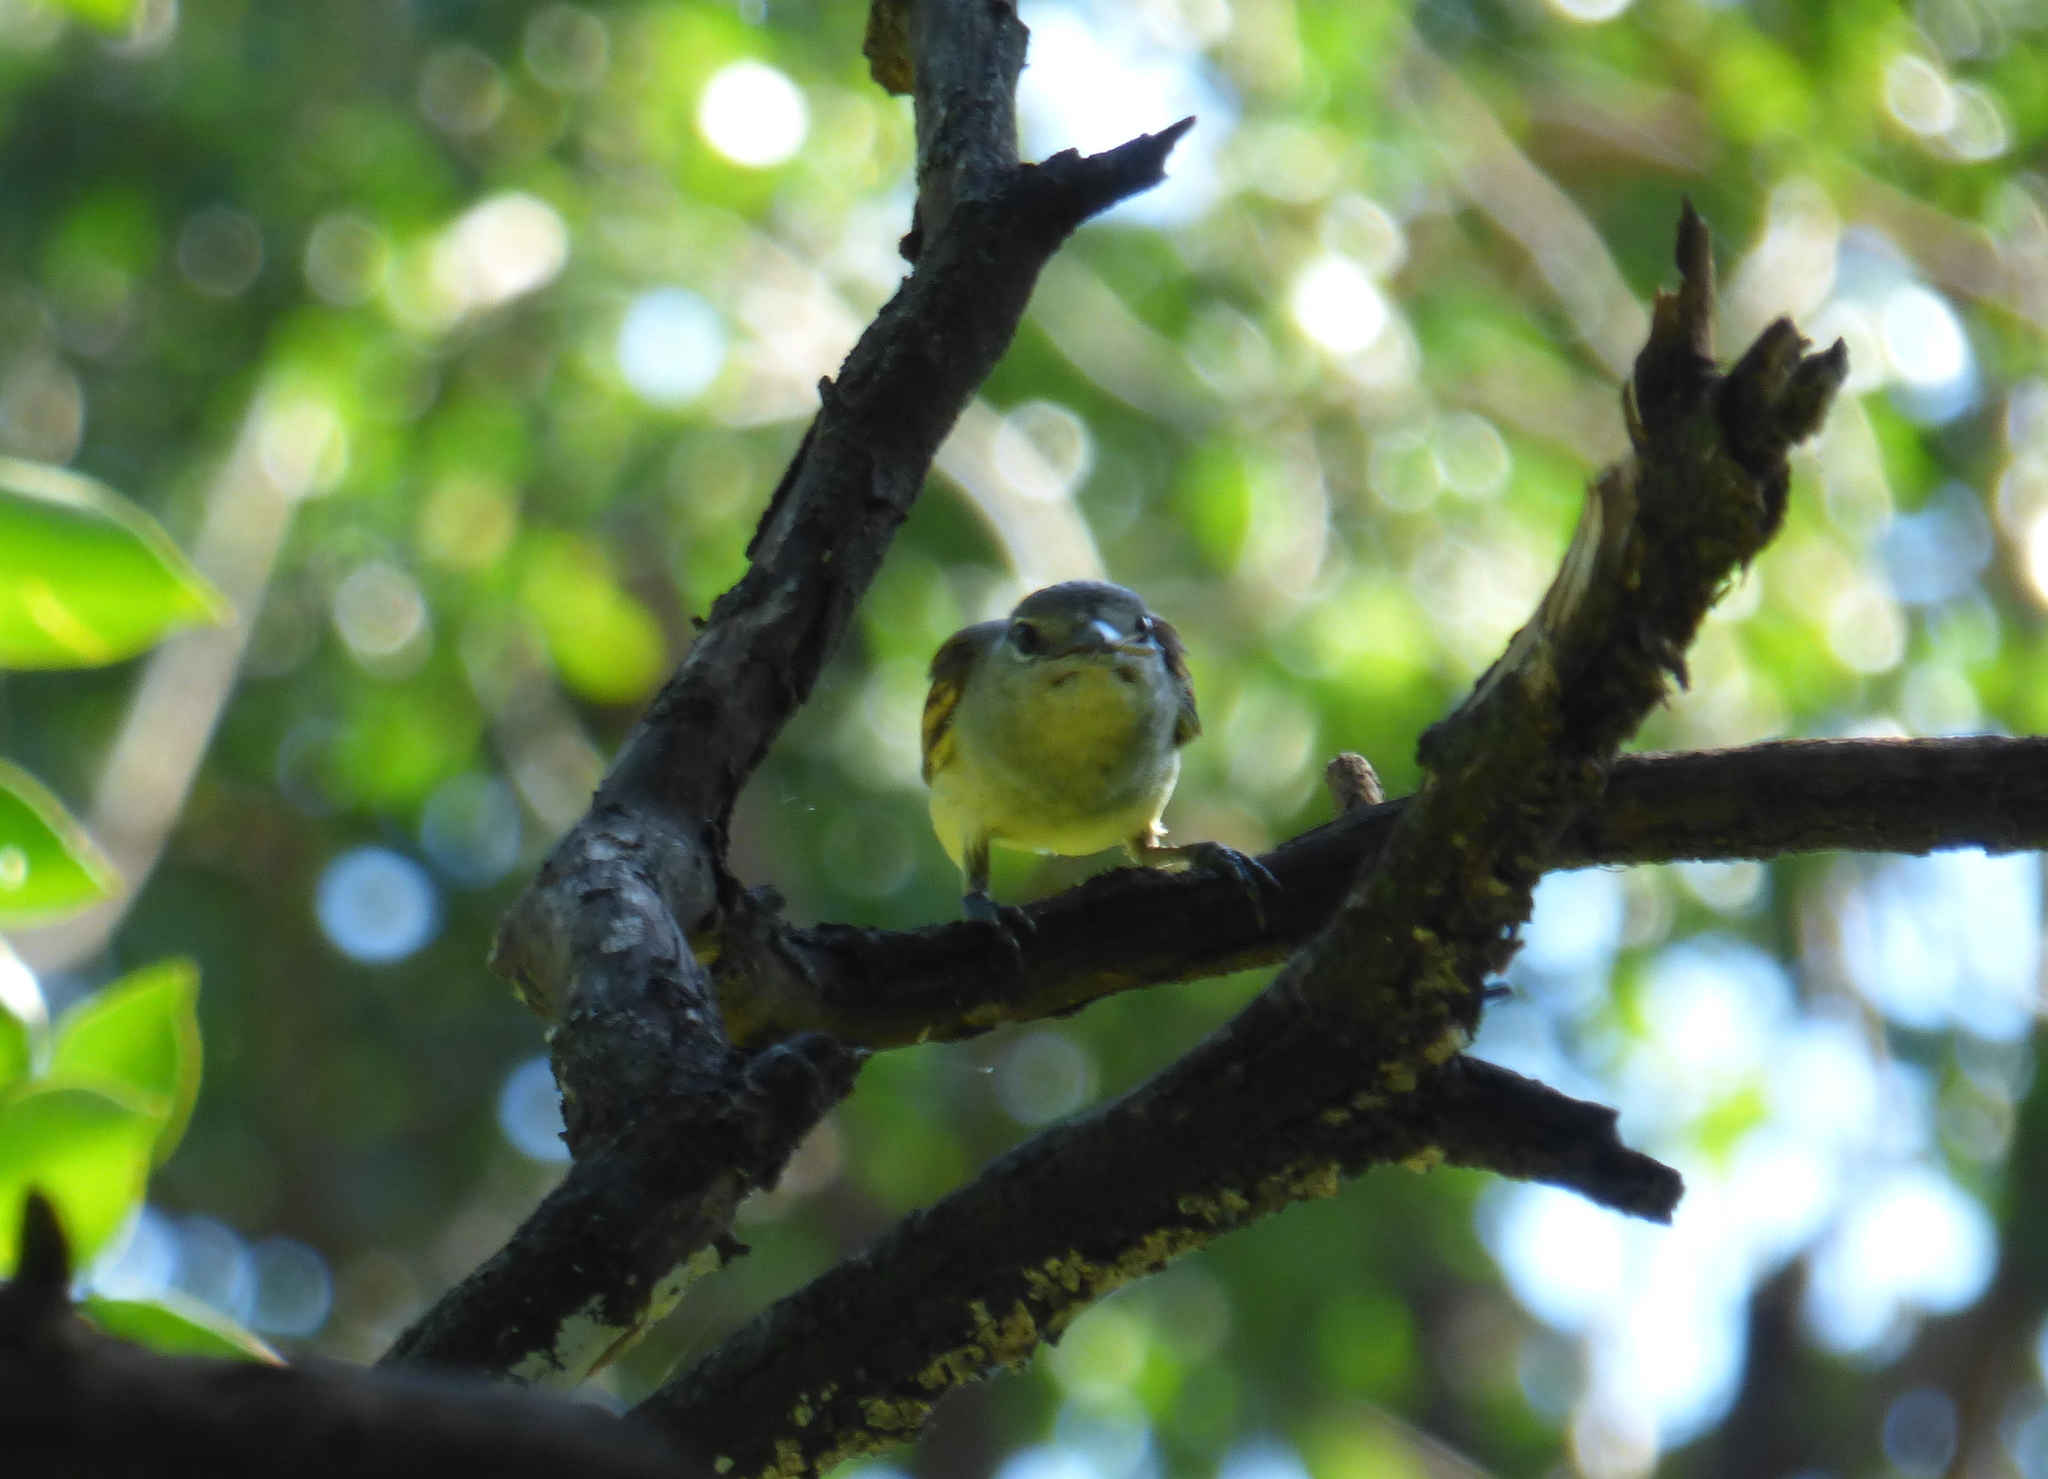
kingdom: Animalia
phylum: Chordata
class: Aves
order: Passeriformes
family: Cotingidae
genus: Pachyramphus
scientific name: Pachyramphus polychopterus
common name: White-winged becard
